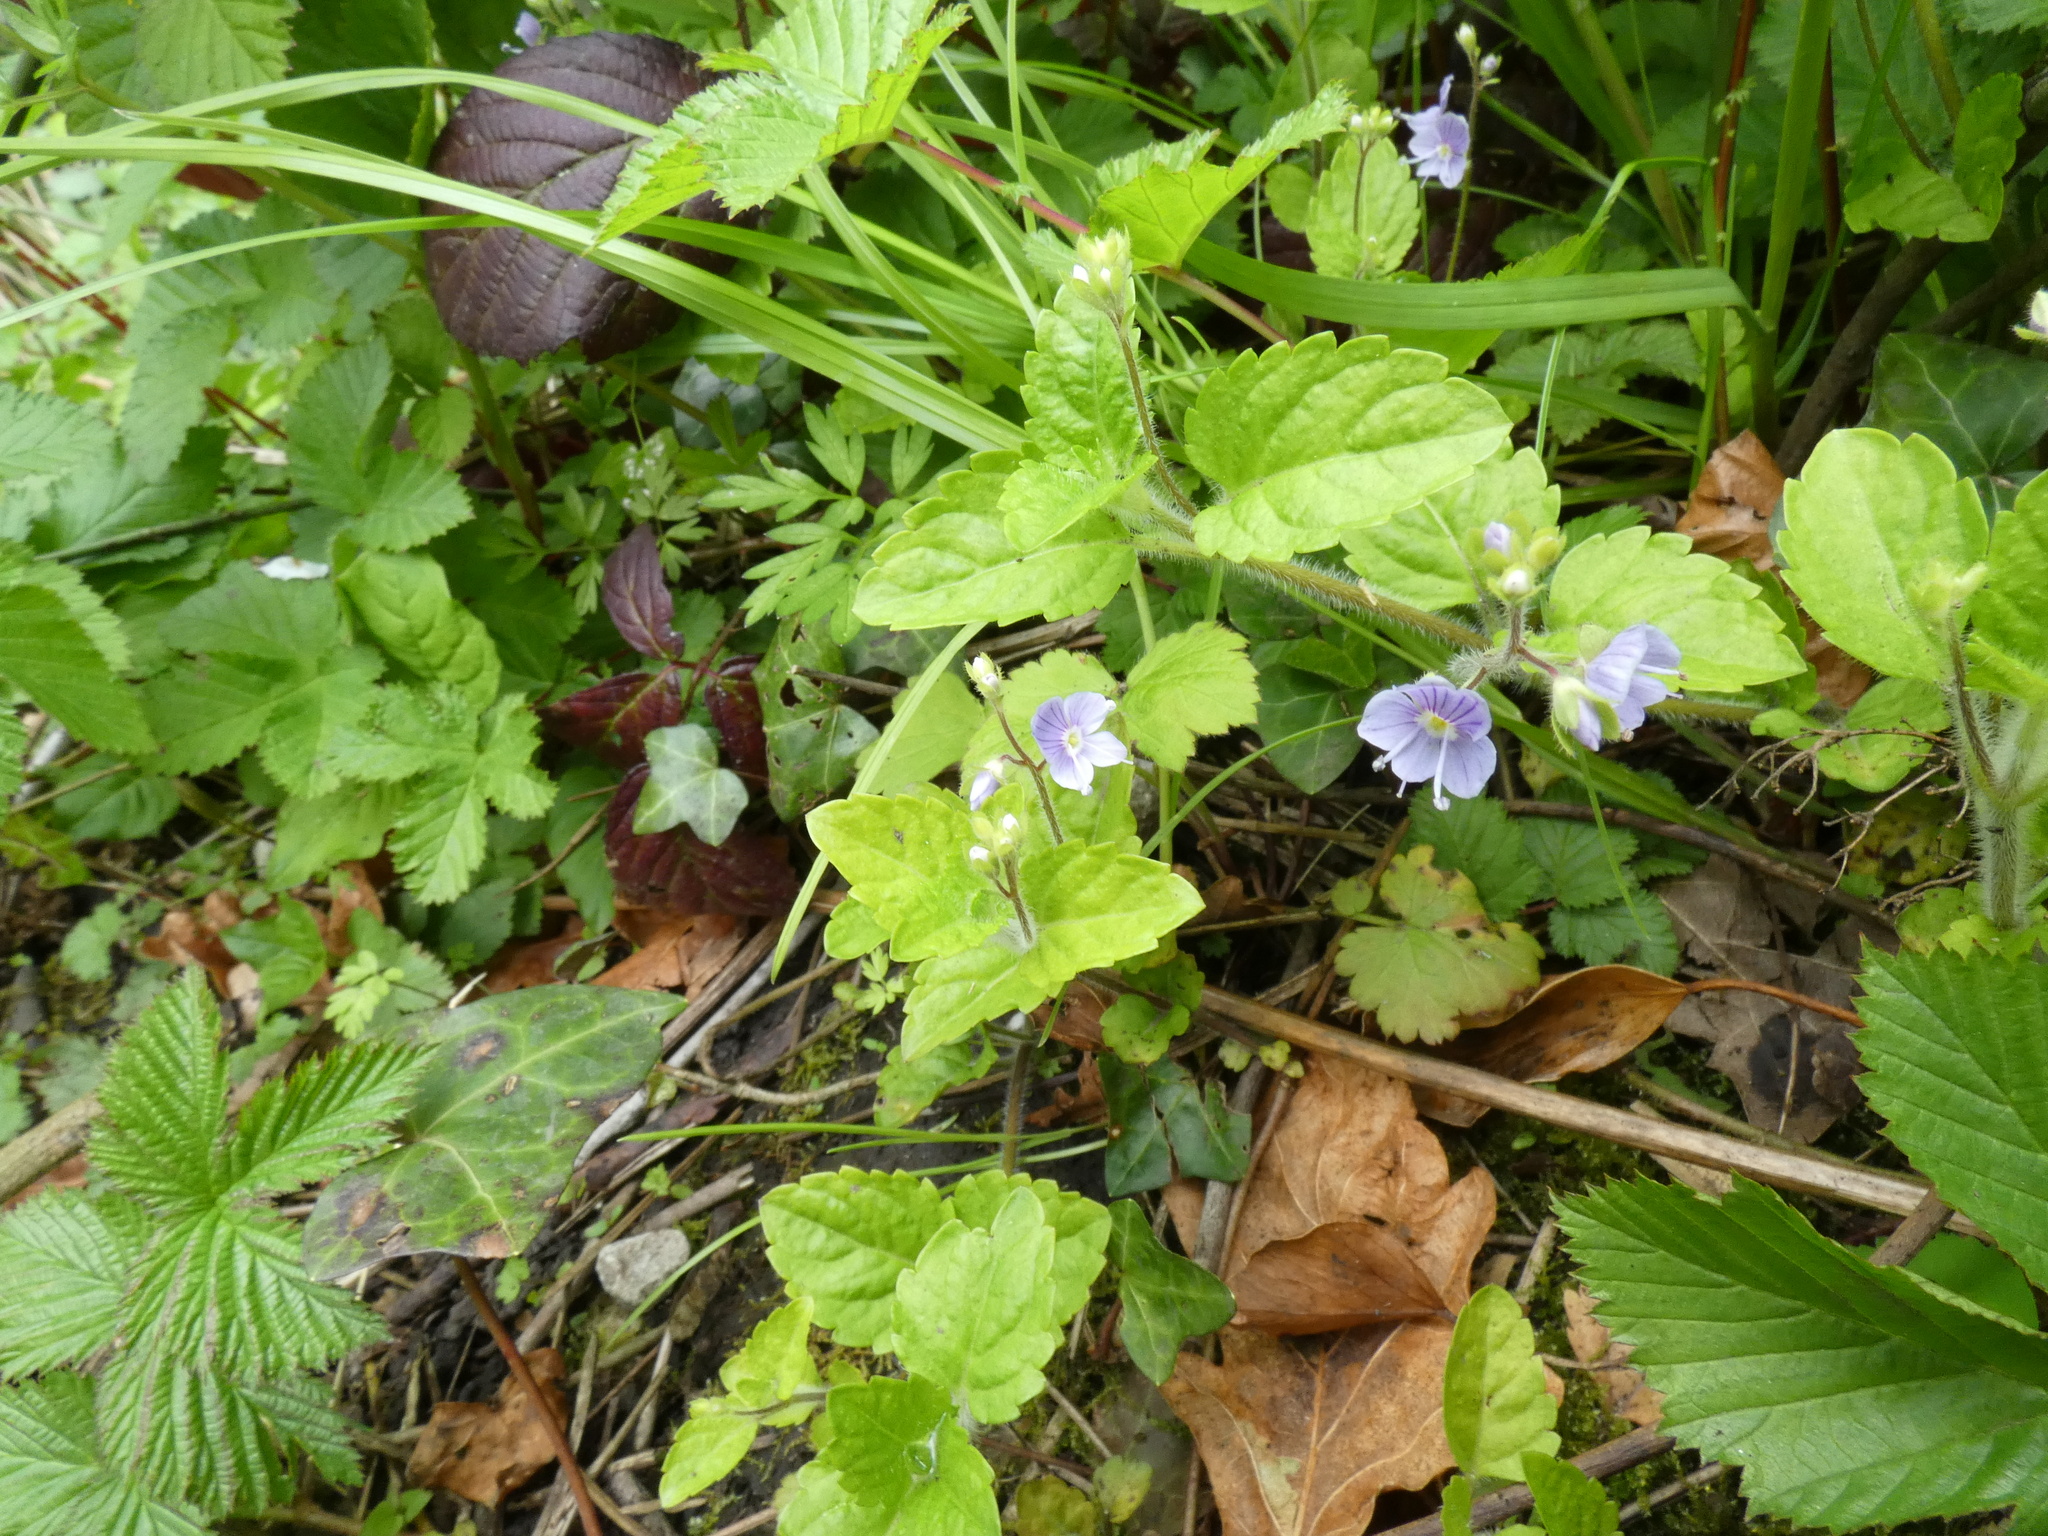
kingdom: Plantae
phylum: Tracheophyta
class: Magnoliopsida
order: Lamiales
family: Plantaginaceae
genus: Veronica
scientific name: Veronica montana
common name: Wood speedwell
